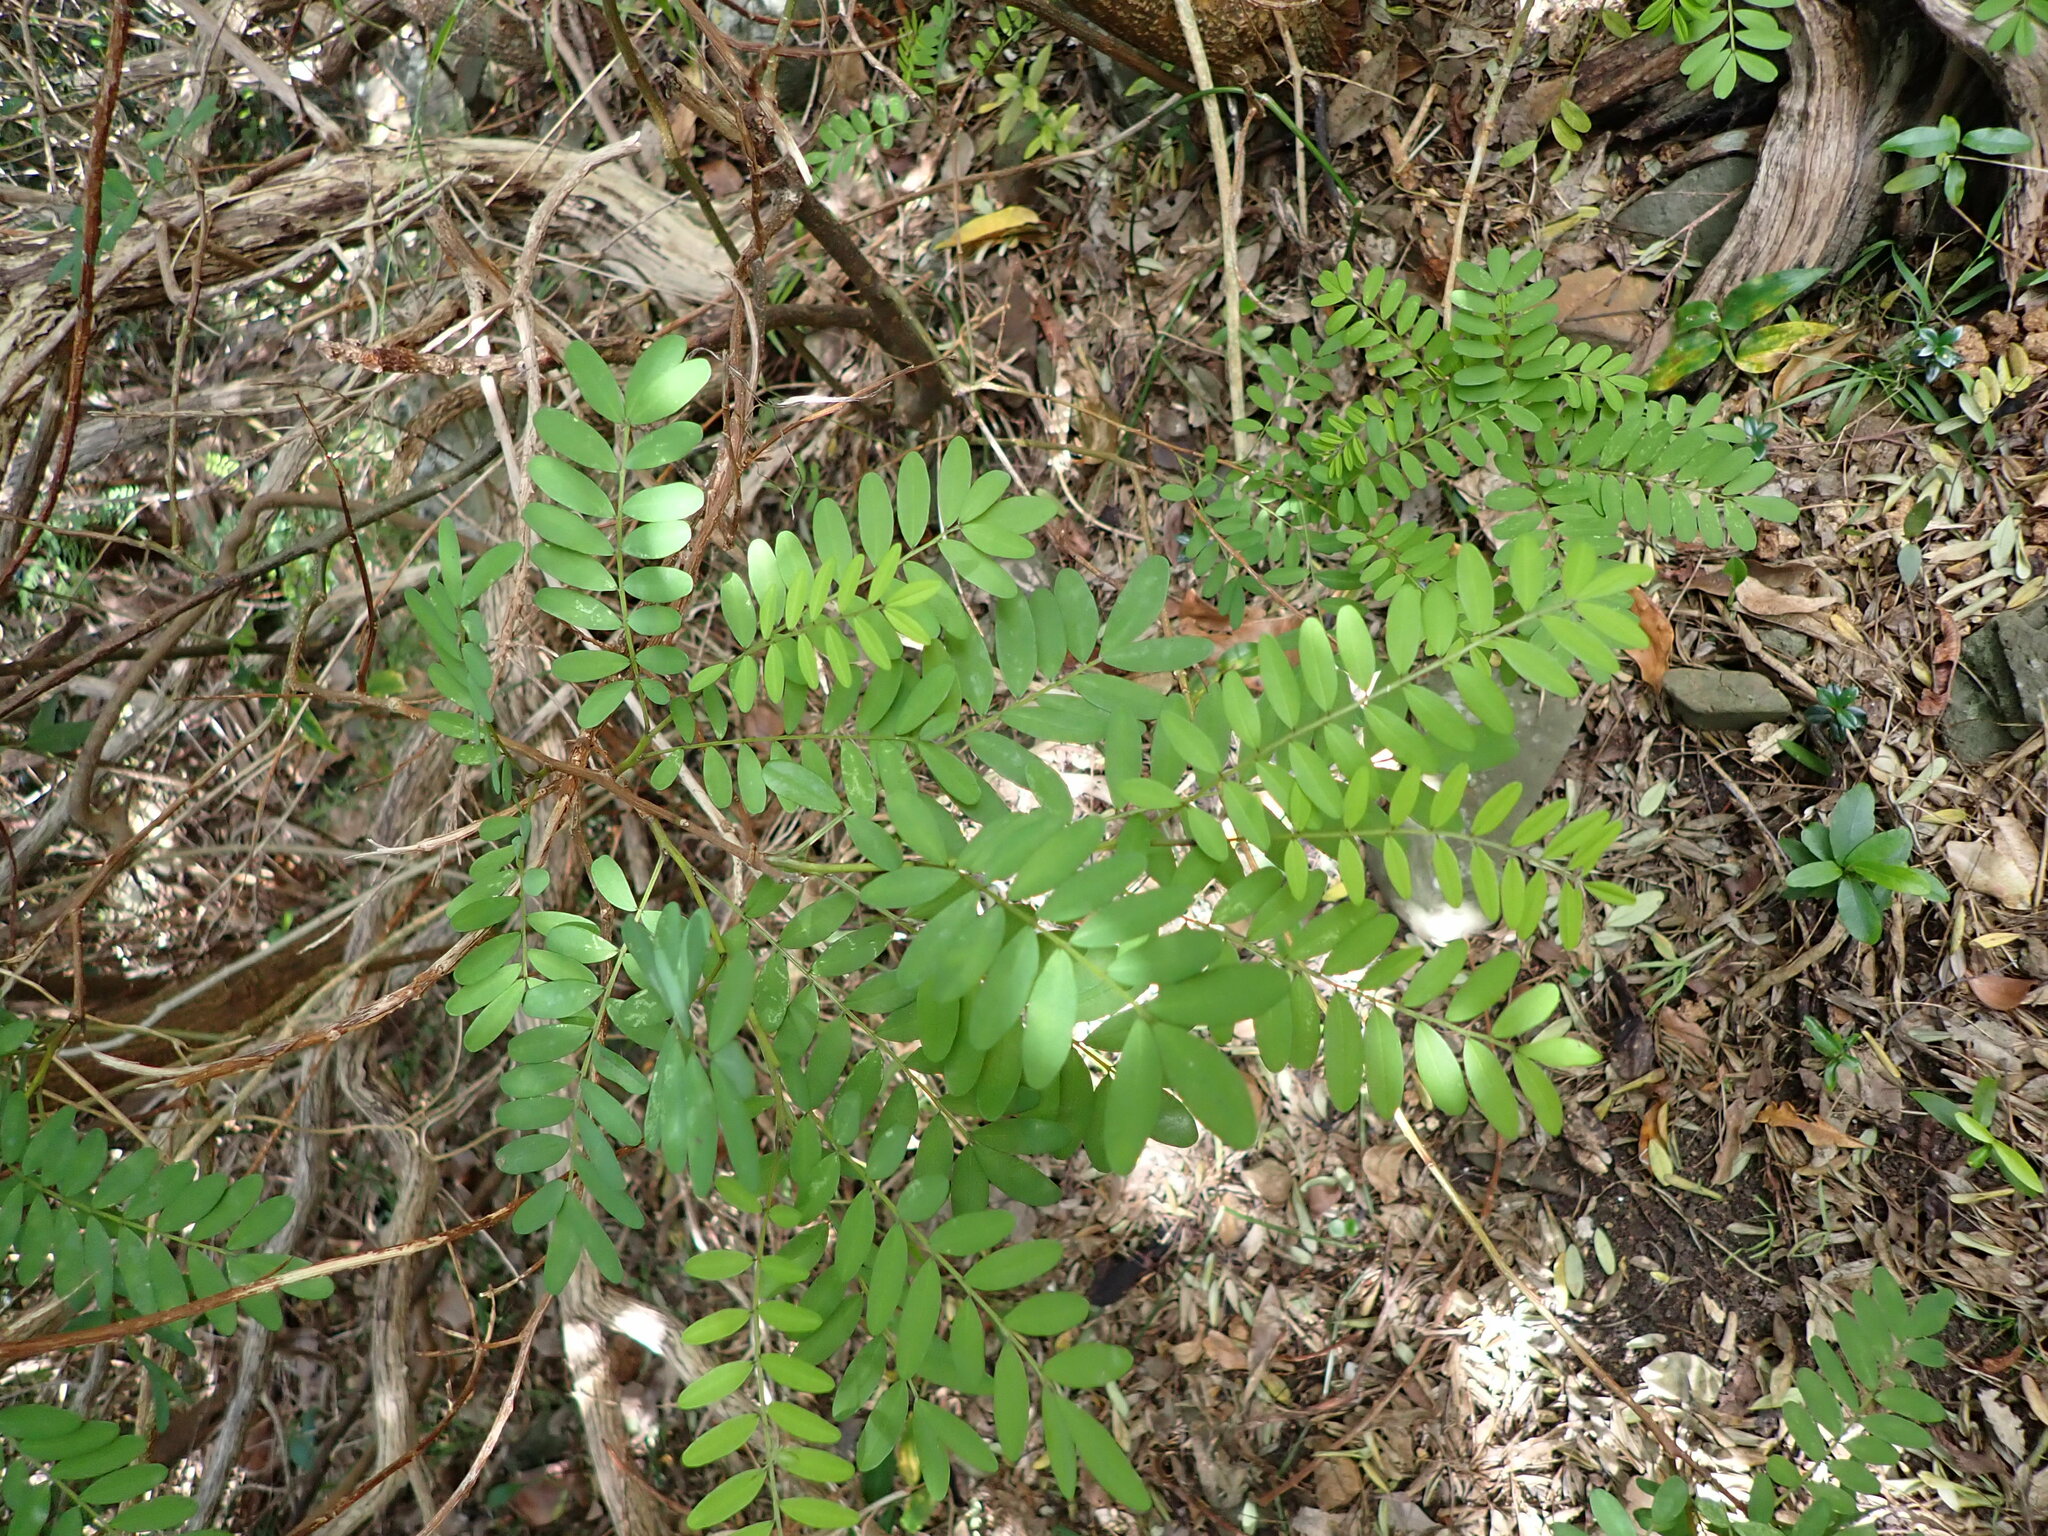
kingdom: Plantae
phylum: Tracheophyta
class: Magnoliopsida
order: Fabales
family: Fabaceae
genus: Sophora
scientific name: Sophora howinsula
